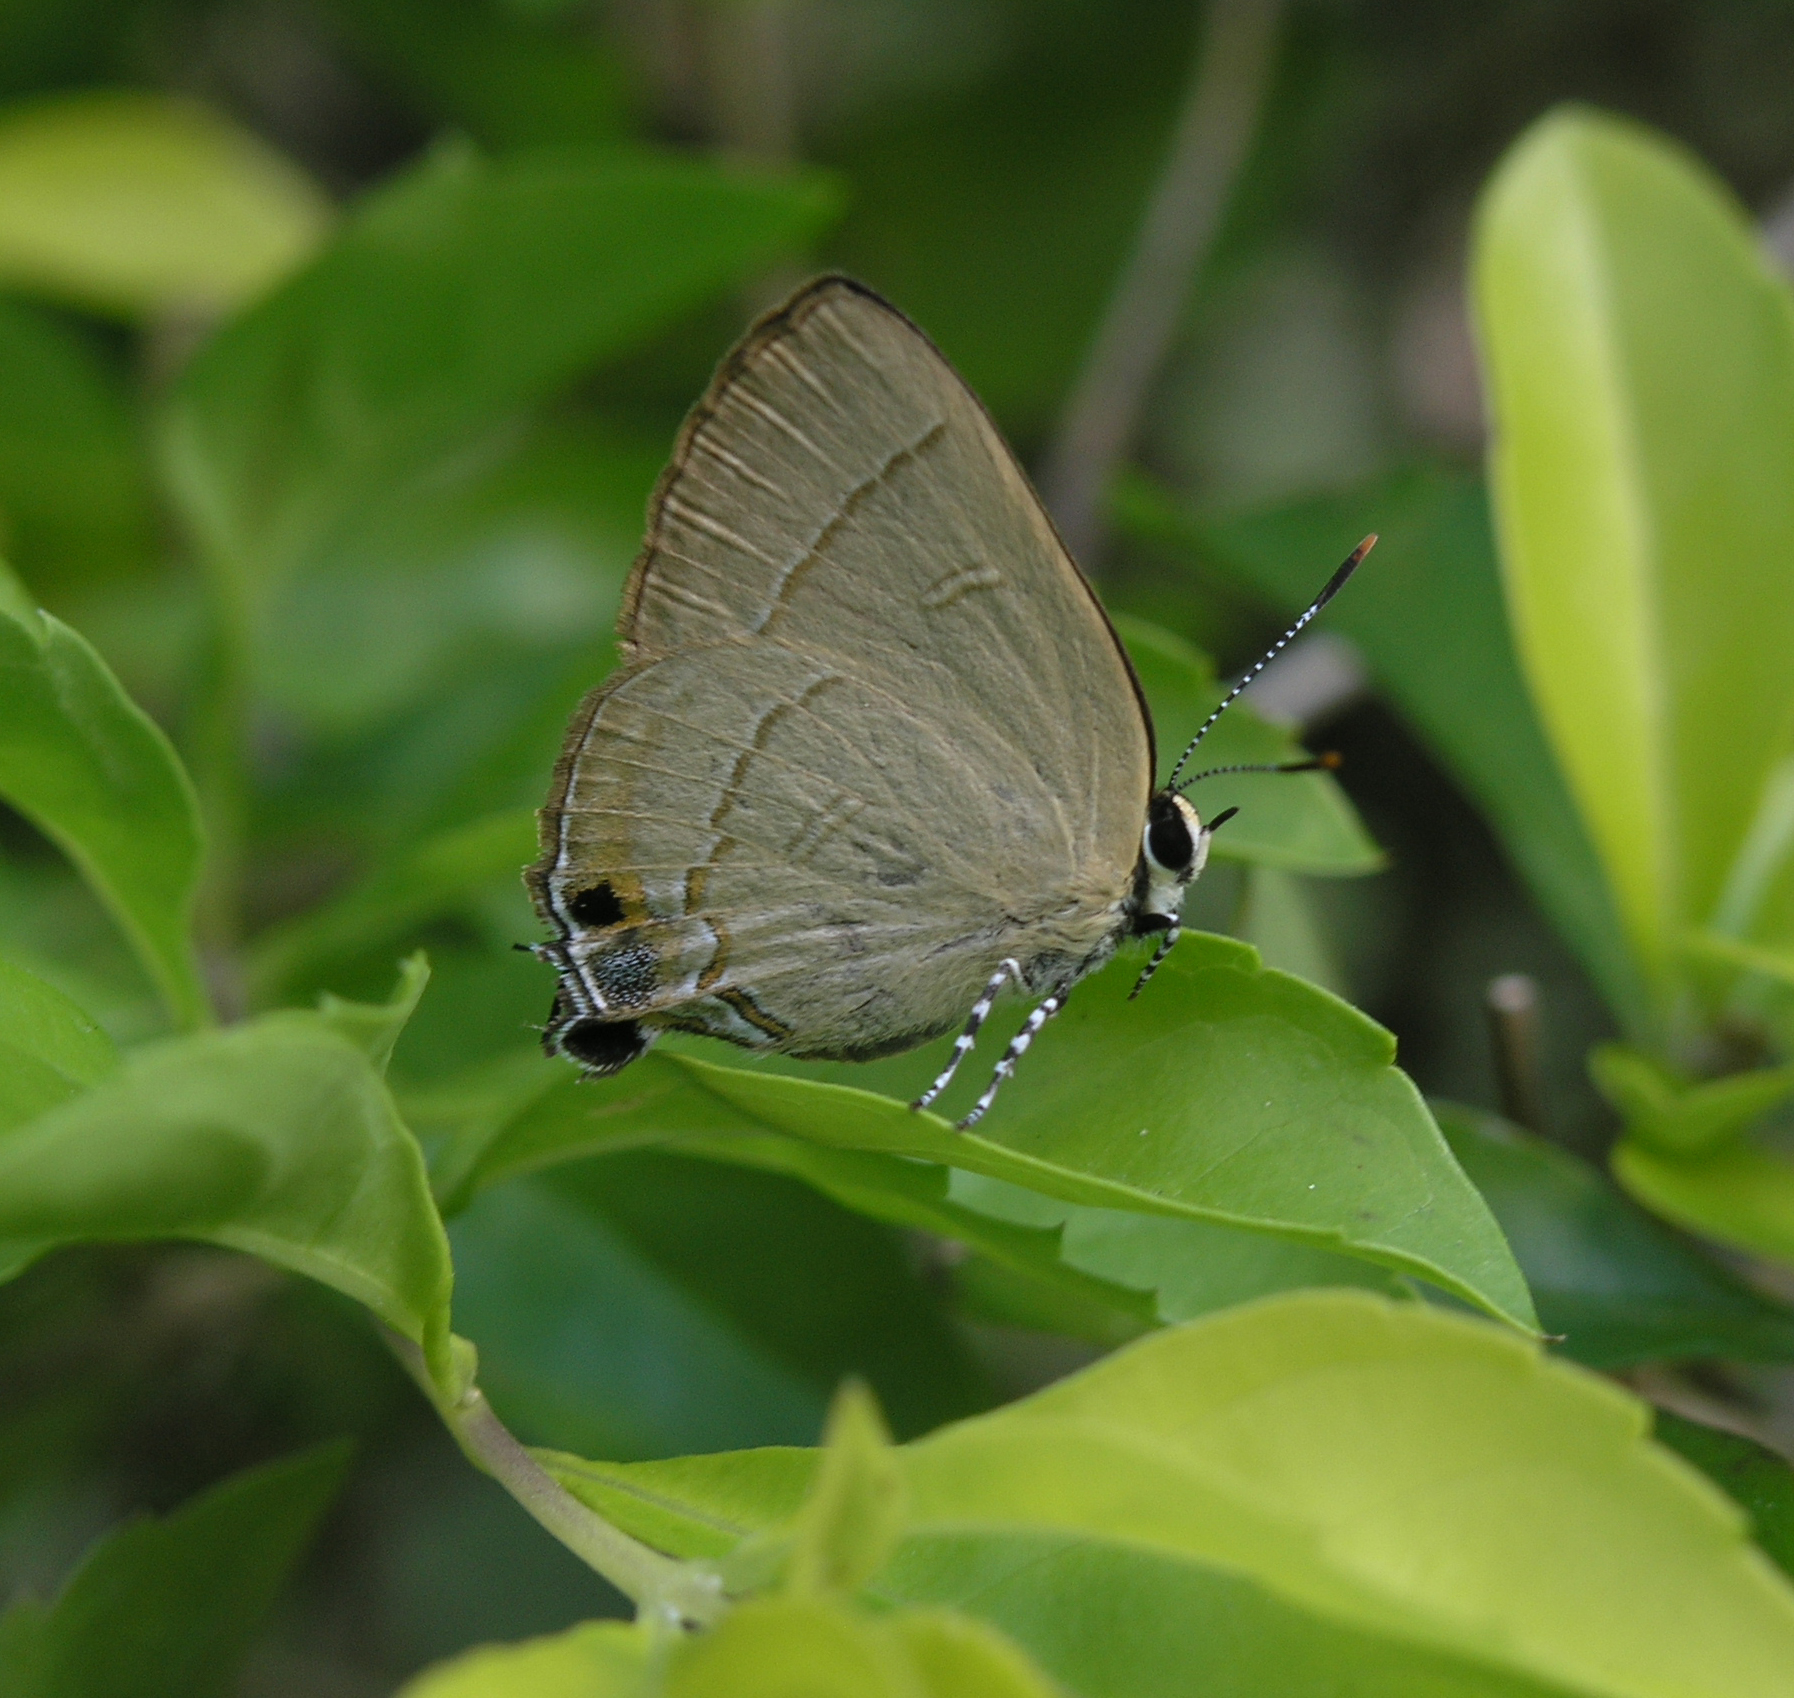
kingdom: Animalia
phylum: Arthropoda
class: Insecta
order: Lepidoptera
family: Lycaenidae
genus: Rapala
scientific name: Rapala dieneces
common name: Scarlet flash
